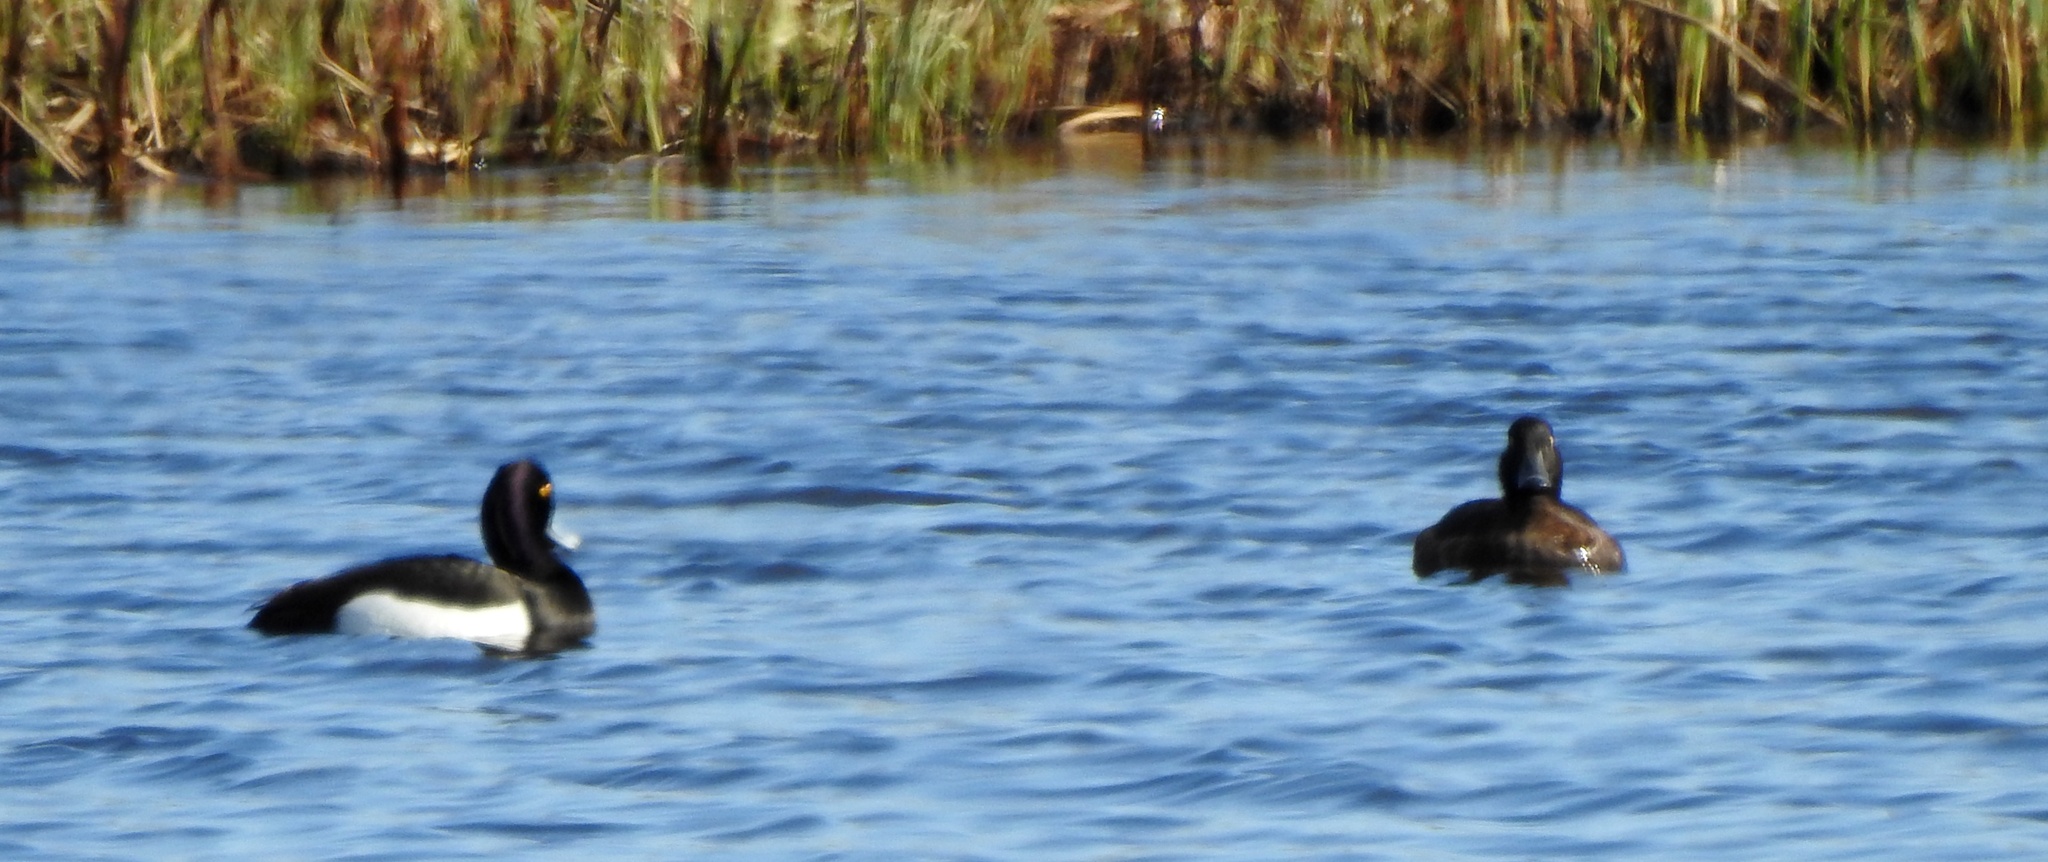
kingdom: Animalia
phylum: Chordata
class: Aves
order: Anseriformes
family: Anatidae
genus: Aythya
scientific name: Aythya fuligula
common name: Tufted duck
